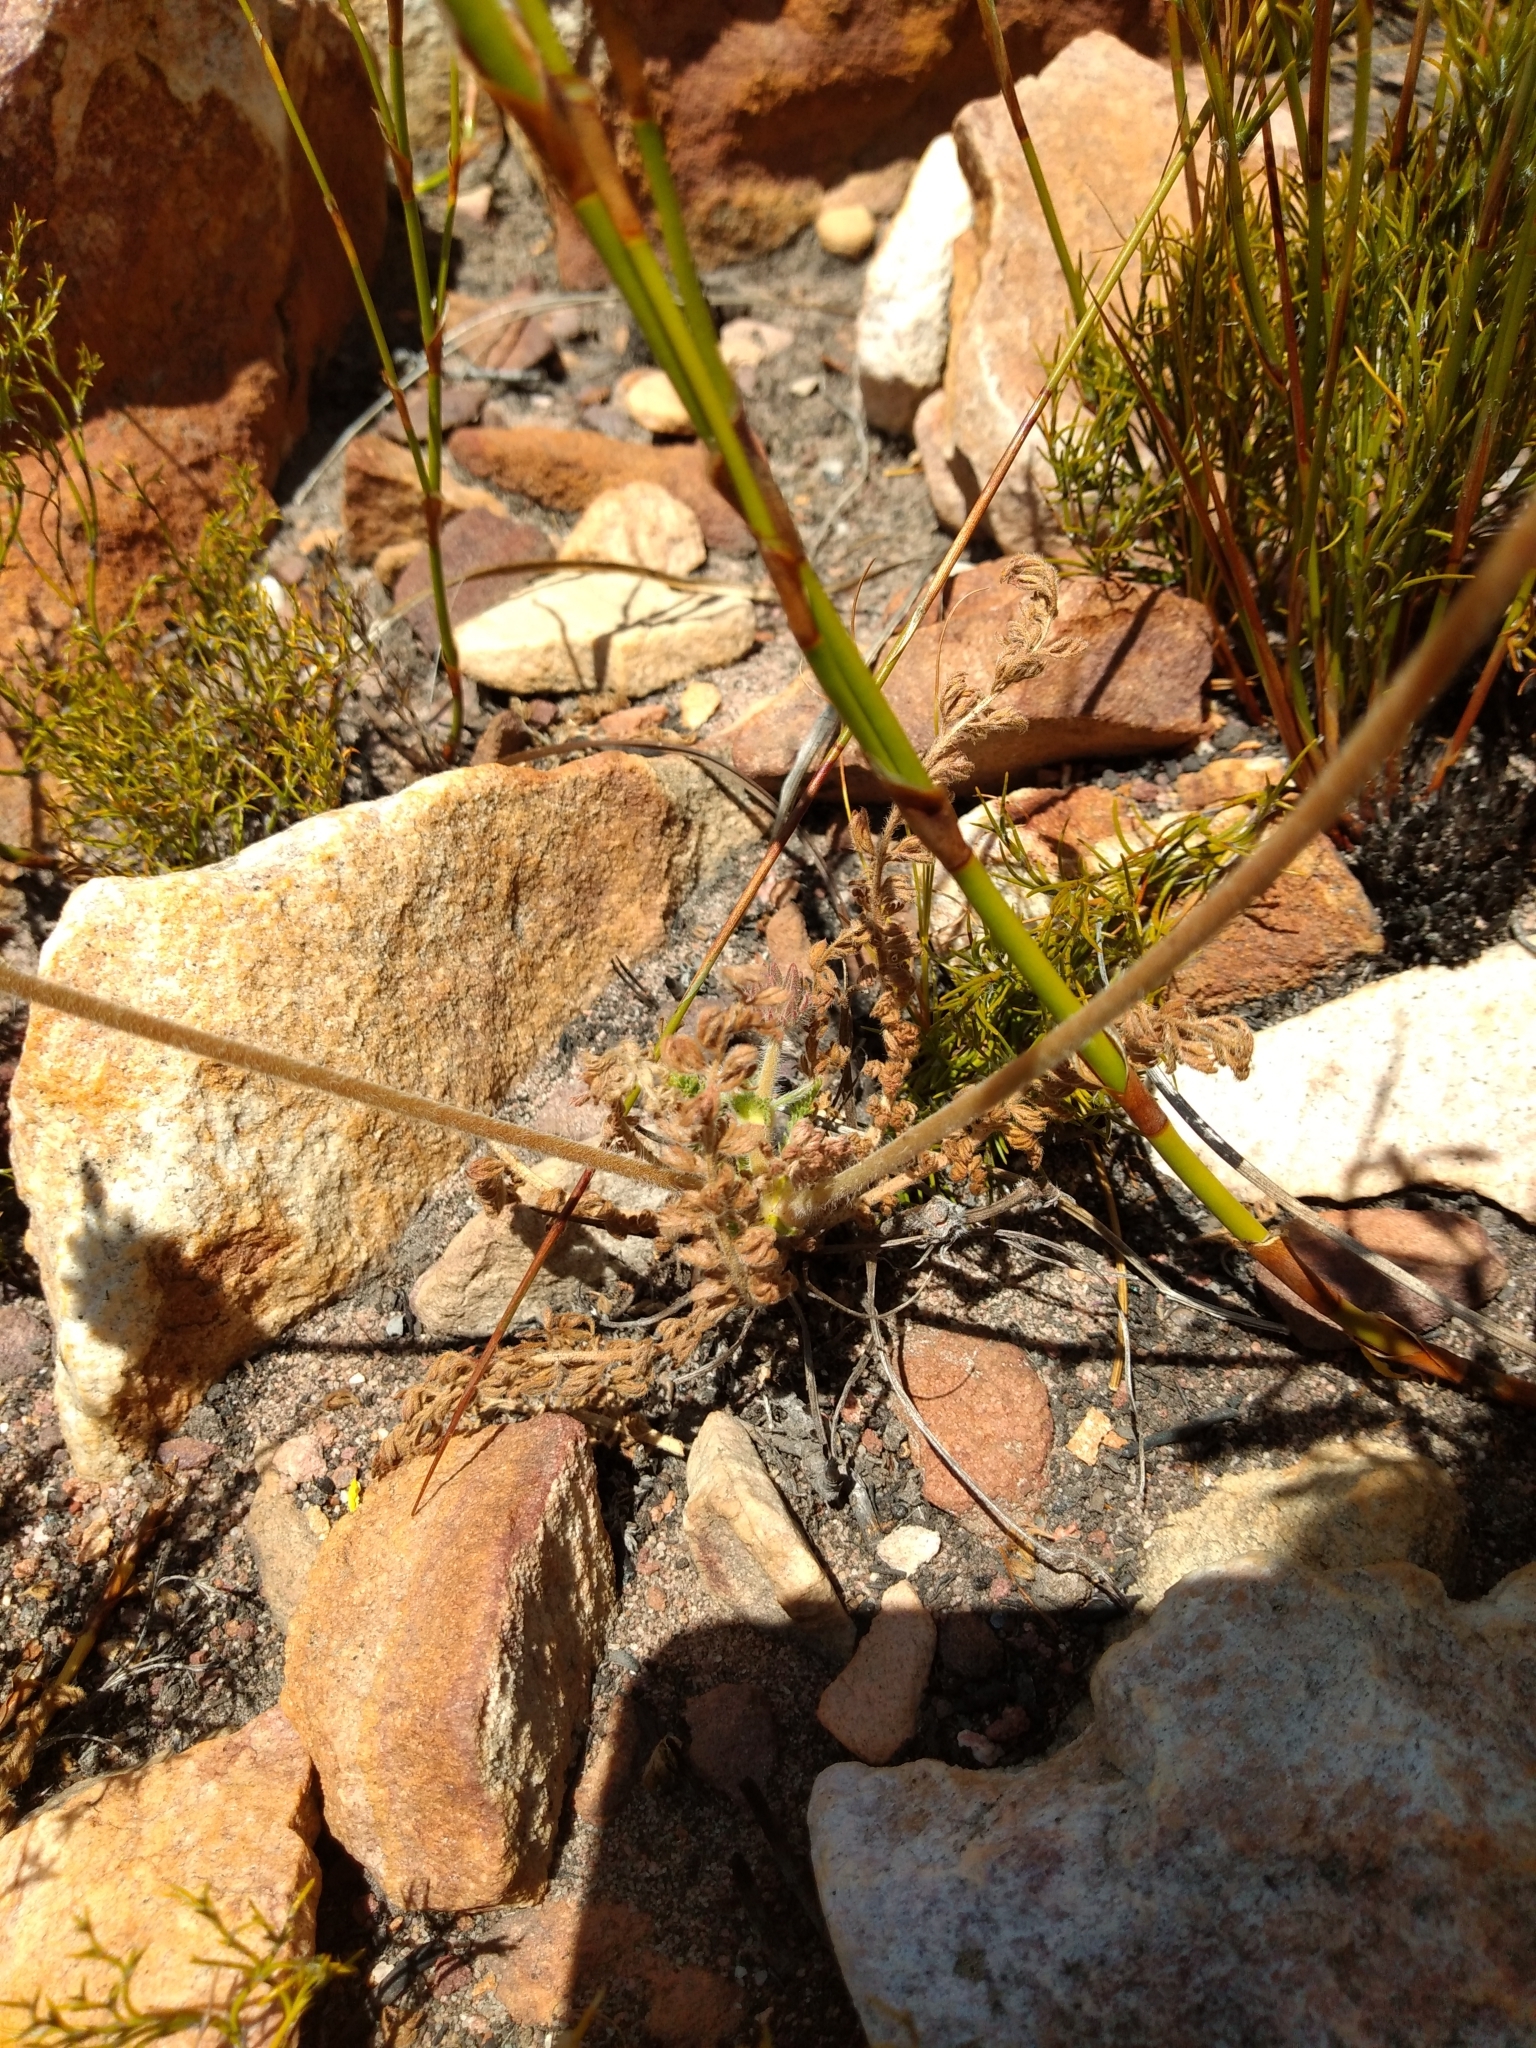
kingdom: Plantae
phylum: Tracheophyta
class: Magnoliopsida
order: Geraniales
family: Geraniaceae
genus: Pelargonium
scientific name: Pelargonium rapaceum
